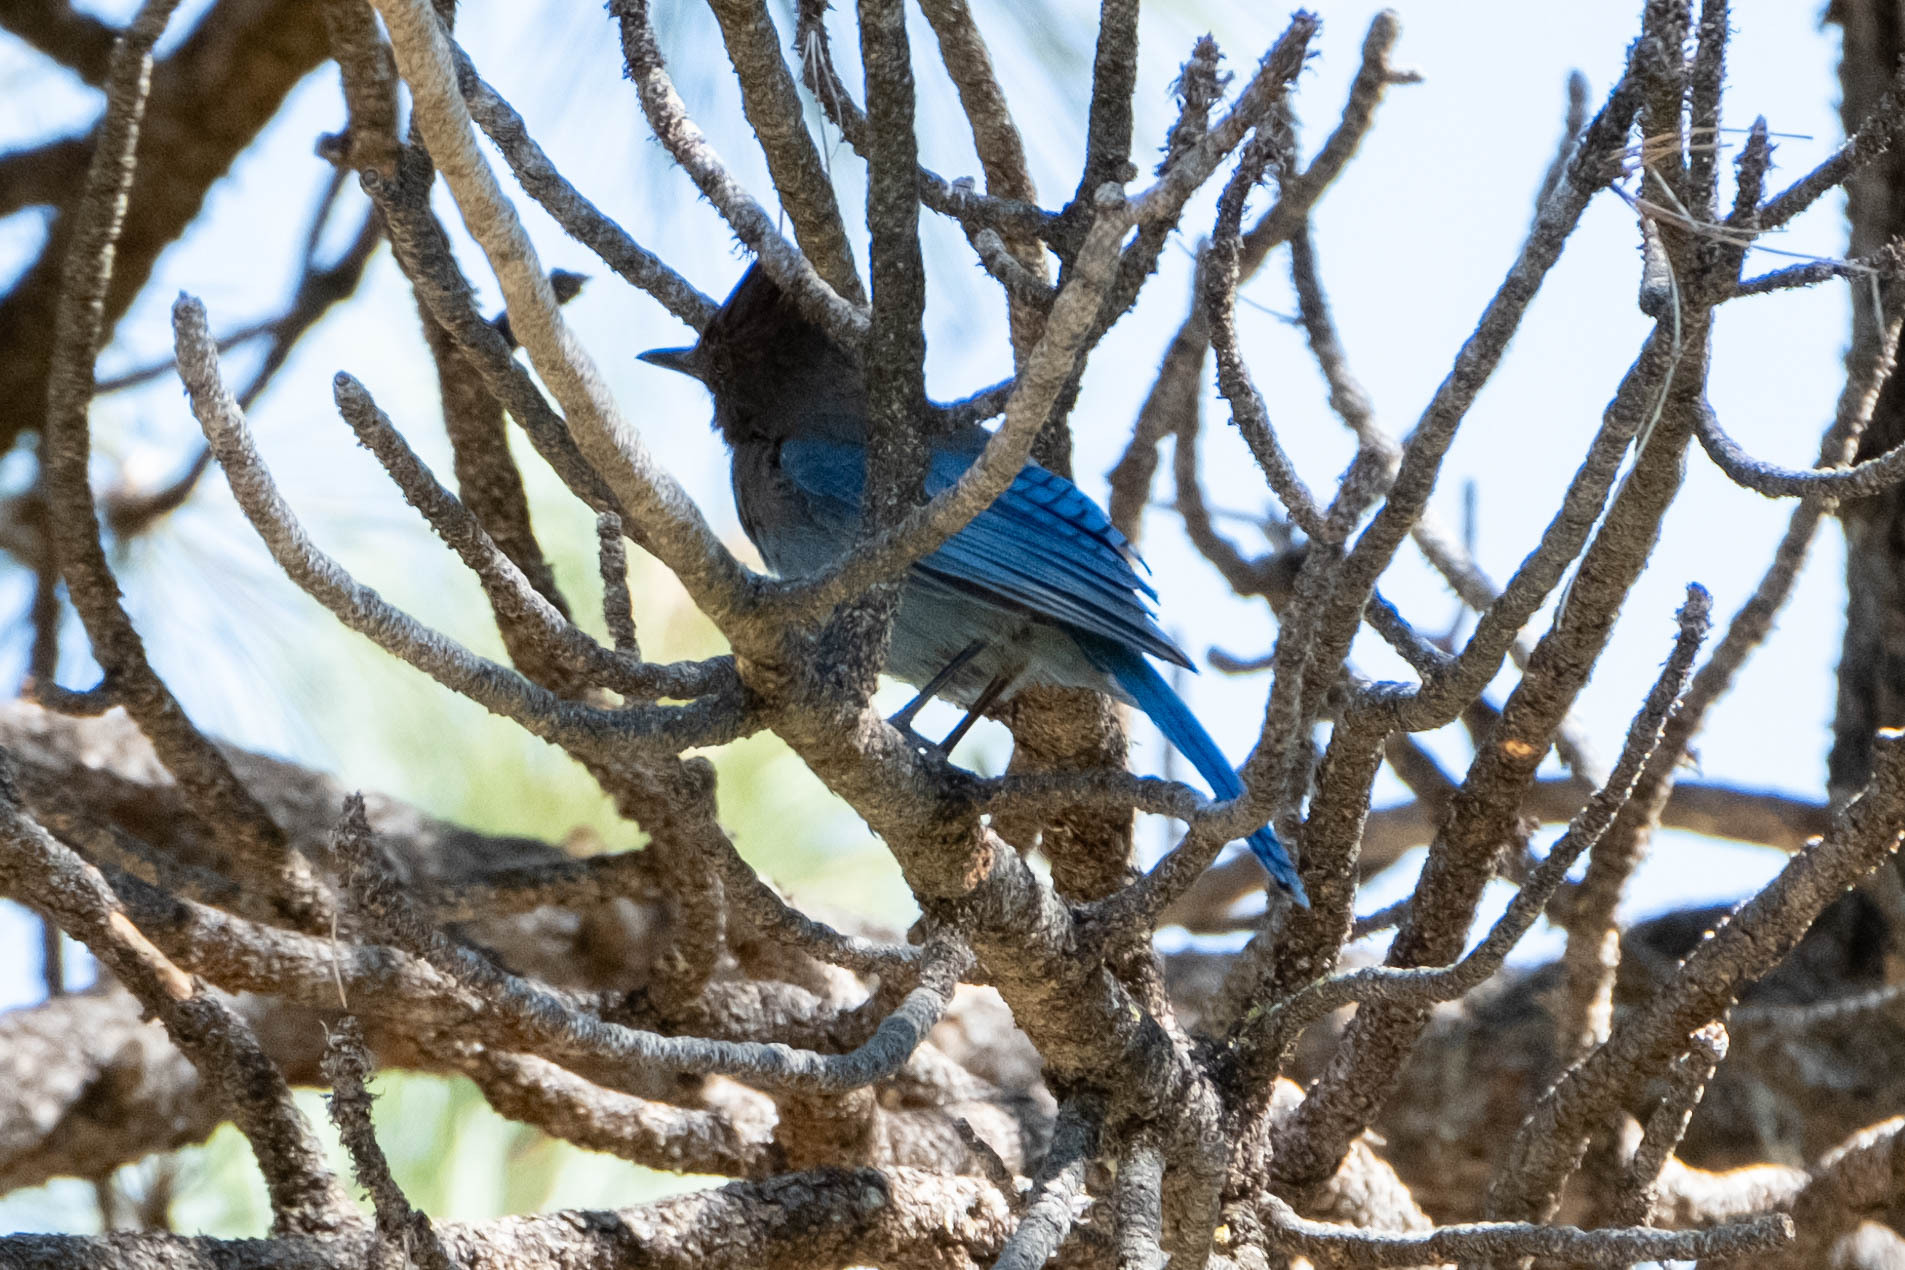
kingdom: Animalia
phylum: Chordata
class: Aves
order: Passeriformes
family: Corvidae
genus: Cyanocitta
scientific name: Cyanocitta stelleri
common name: Steller's jay
